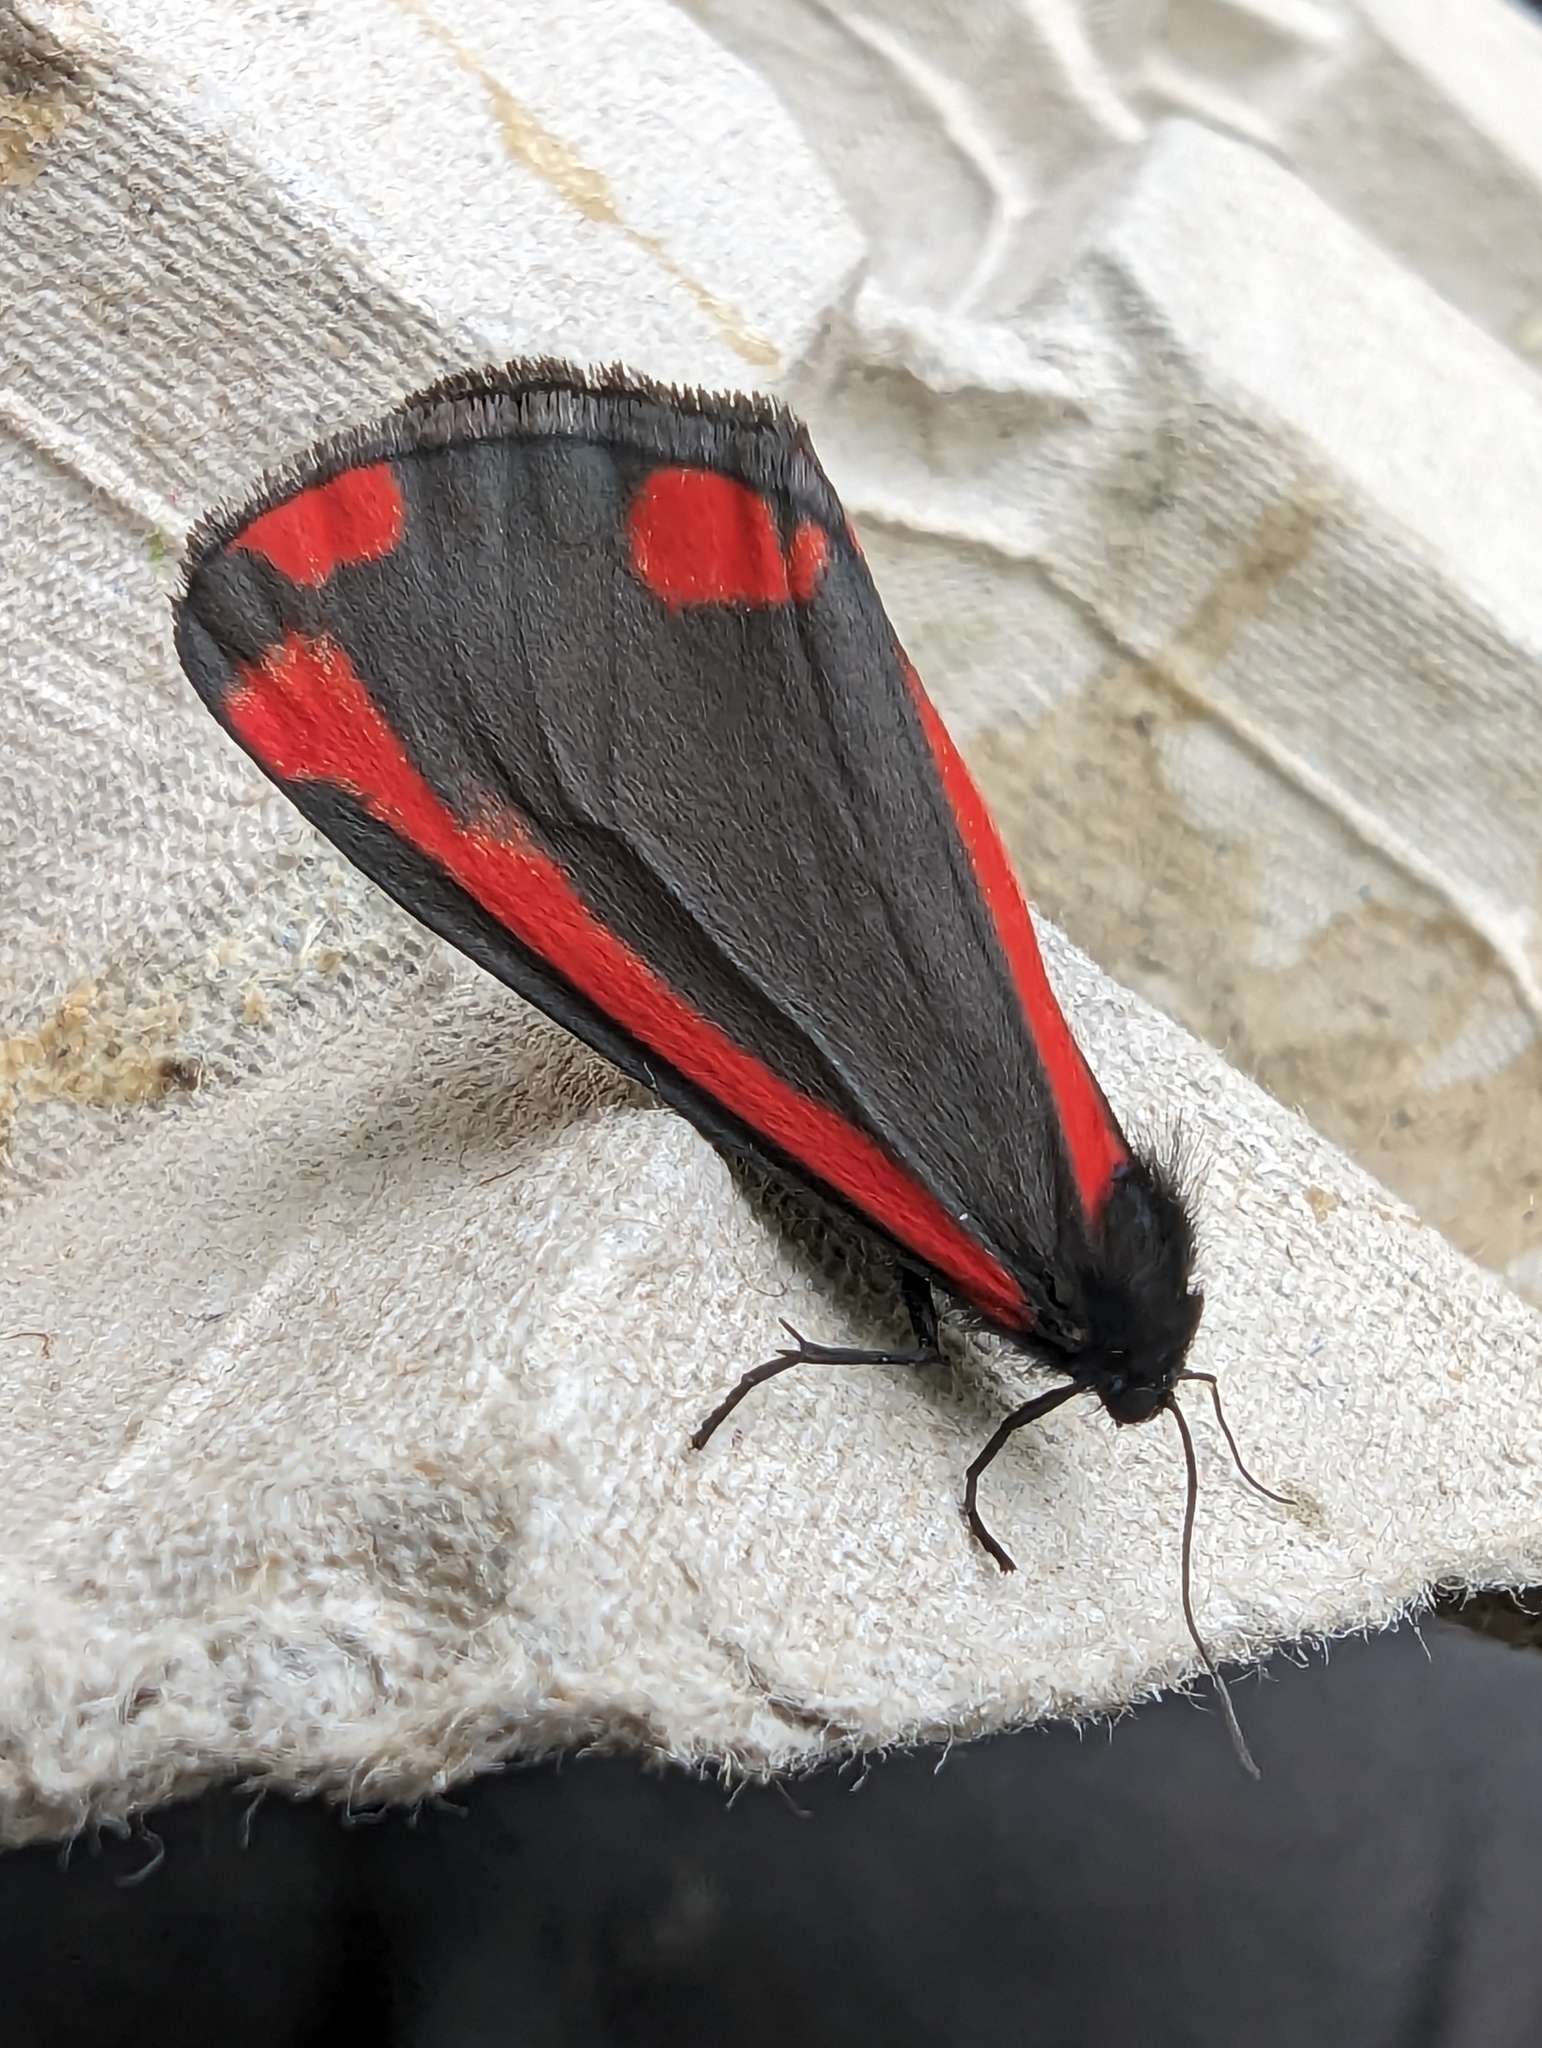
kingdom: Animalia
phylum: Arthropoda
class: Insecta
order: Lepidoptera
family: Erebidae
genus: Tyria
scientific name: Tyria jacobaeae
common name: Cinnabar
